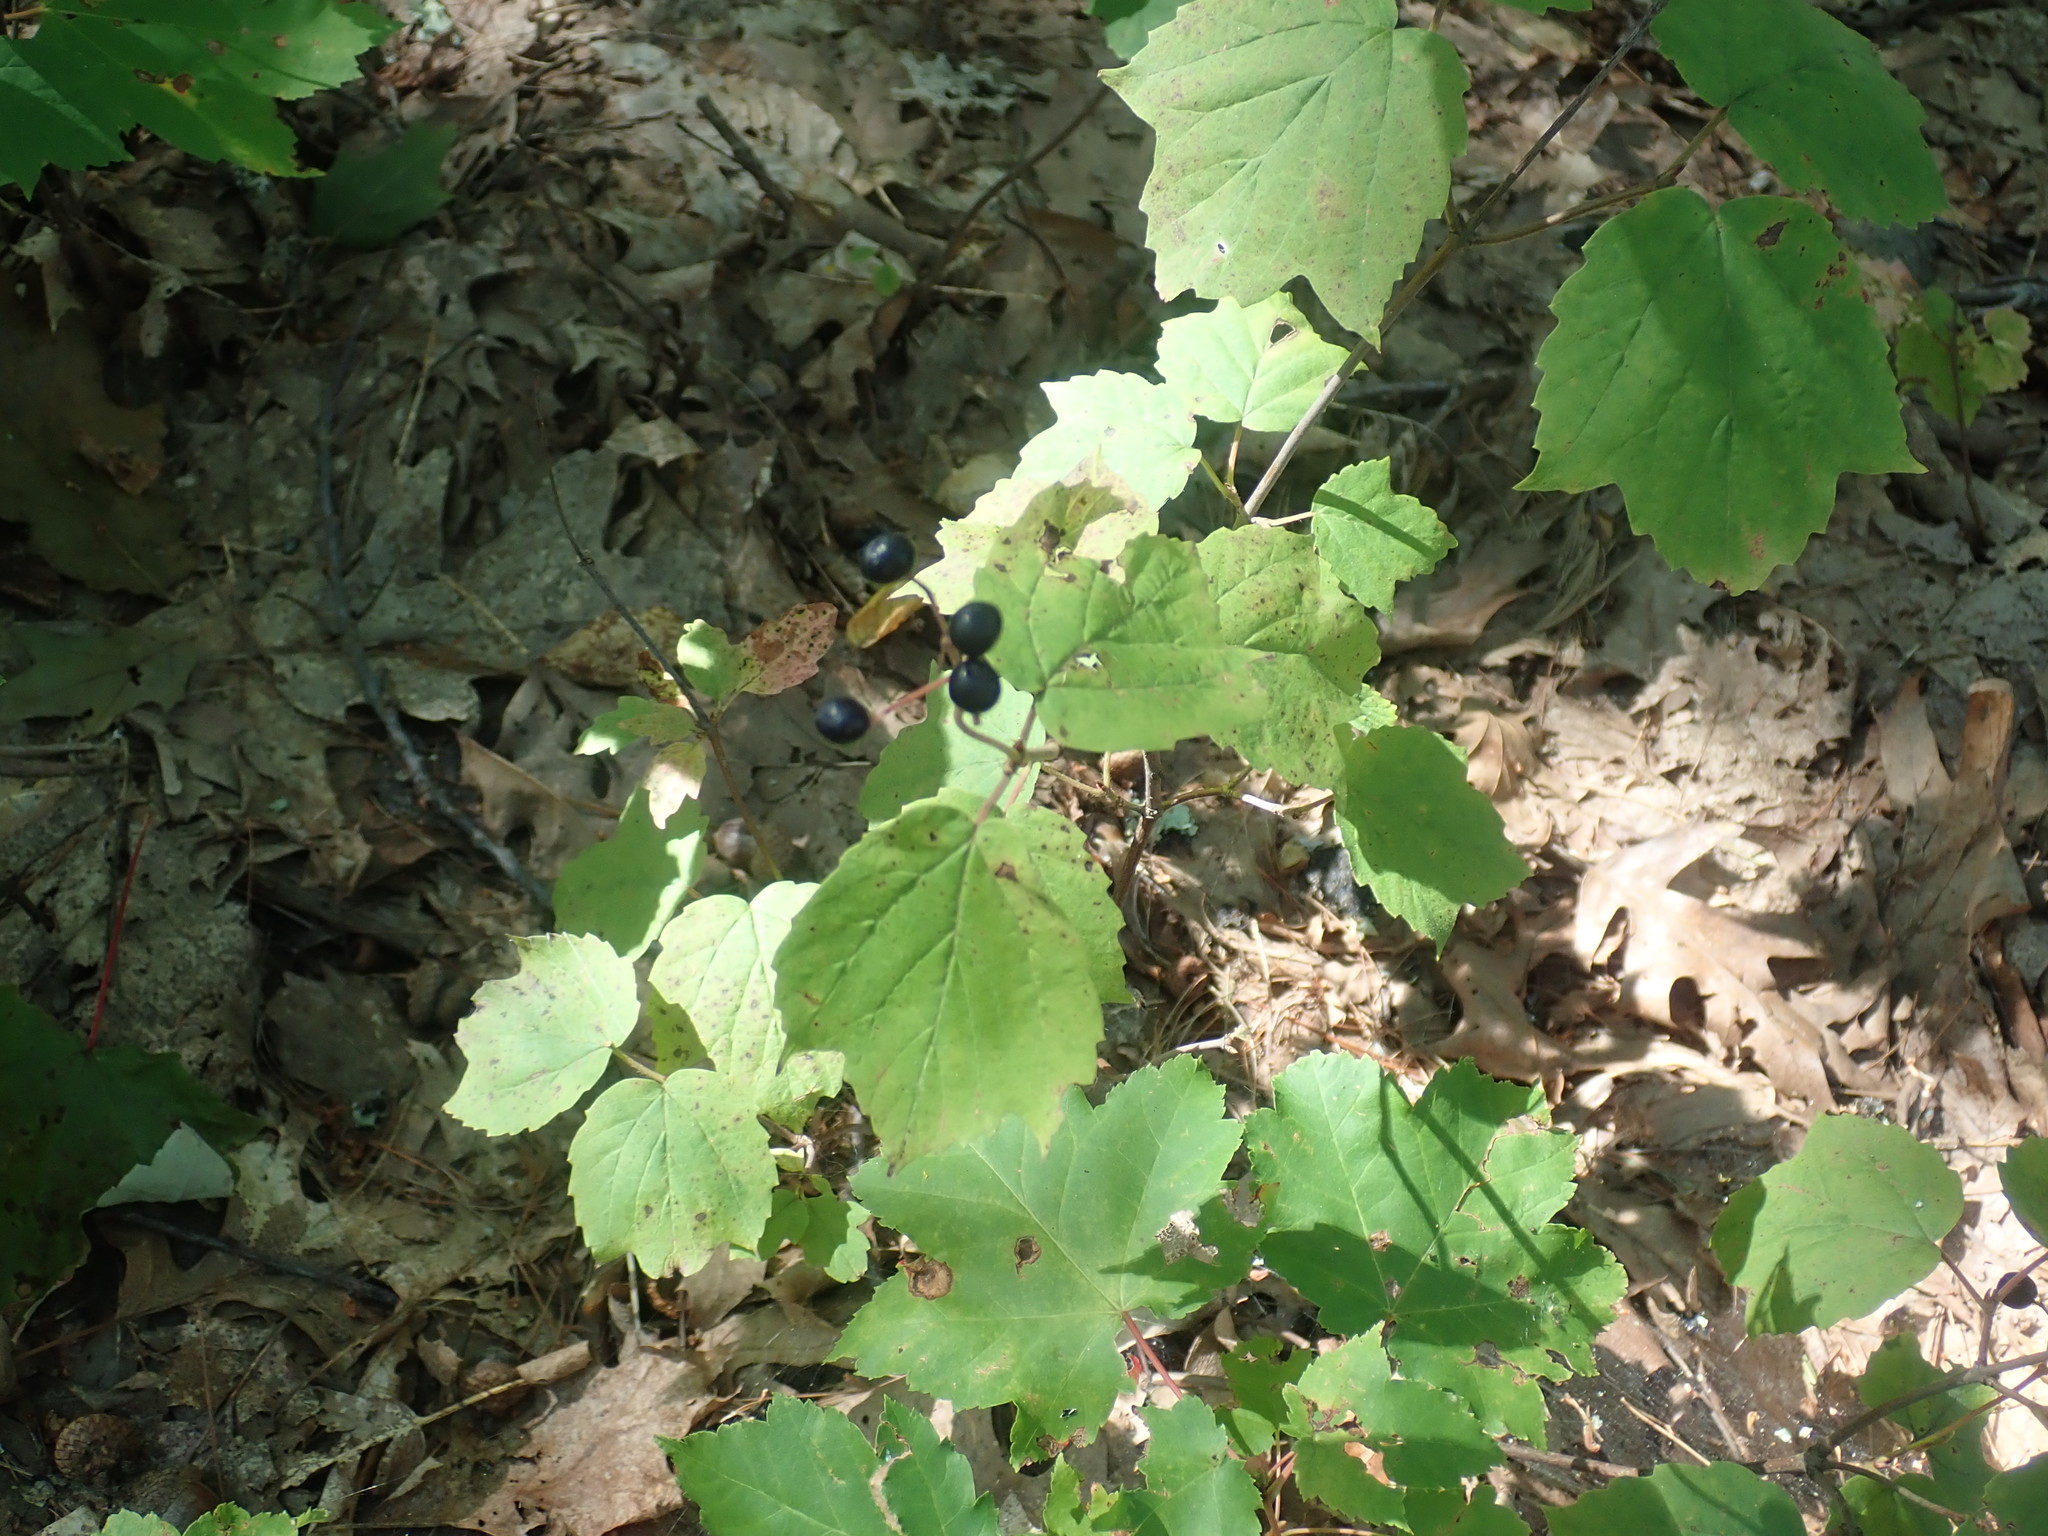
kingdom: Plantae
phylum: Tracheophyta
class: Magnoliopsida
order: Dipsacales
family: Viburnaceae
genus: Viburnum
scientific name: Viburnum acerifolium
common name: Dockmackie
